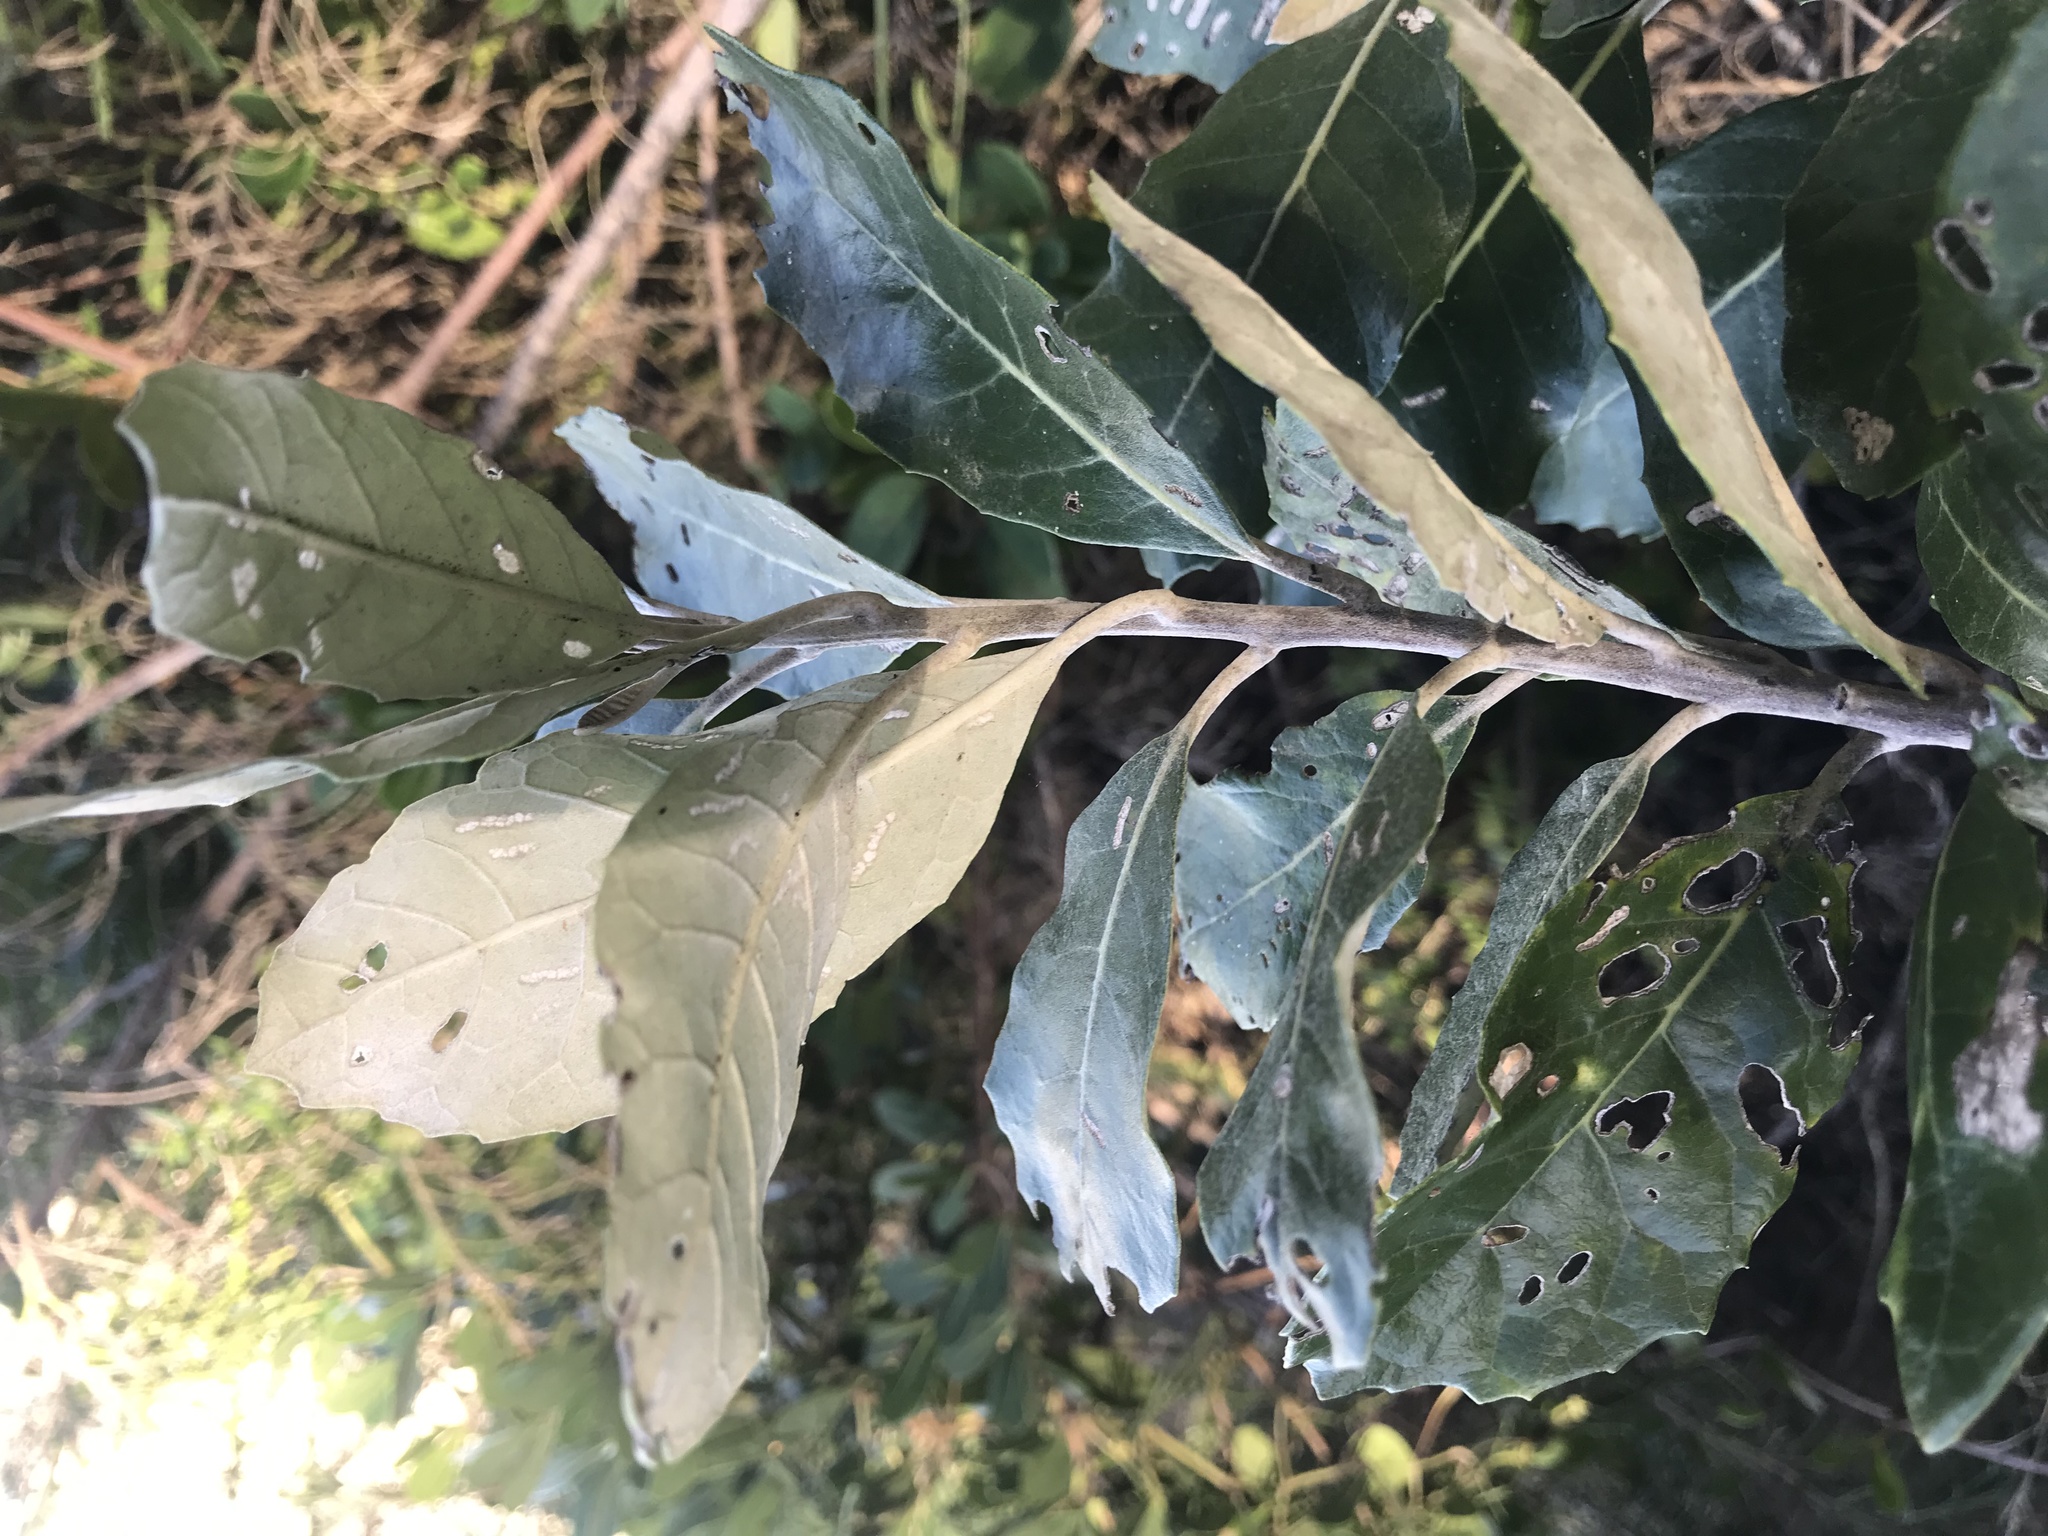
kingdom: Plantae
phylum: Tracheophyta
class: Magnoliopsida
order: Asterales
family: Asteraceae
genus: Brachylaena
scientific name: Brachylaena discolor
